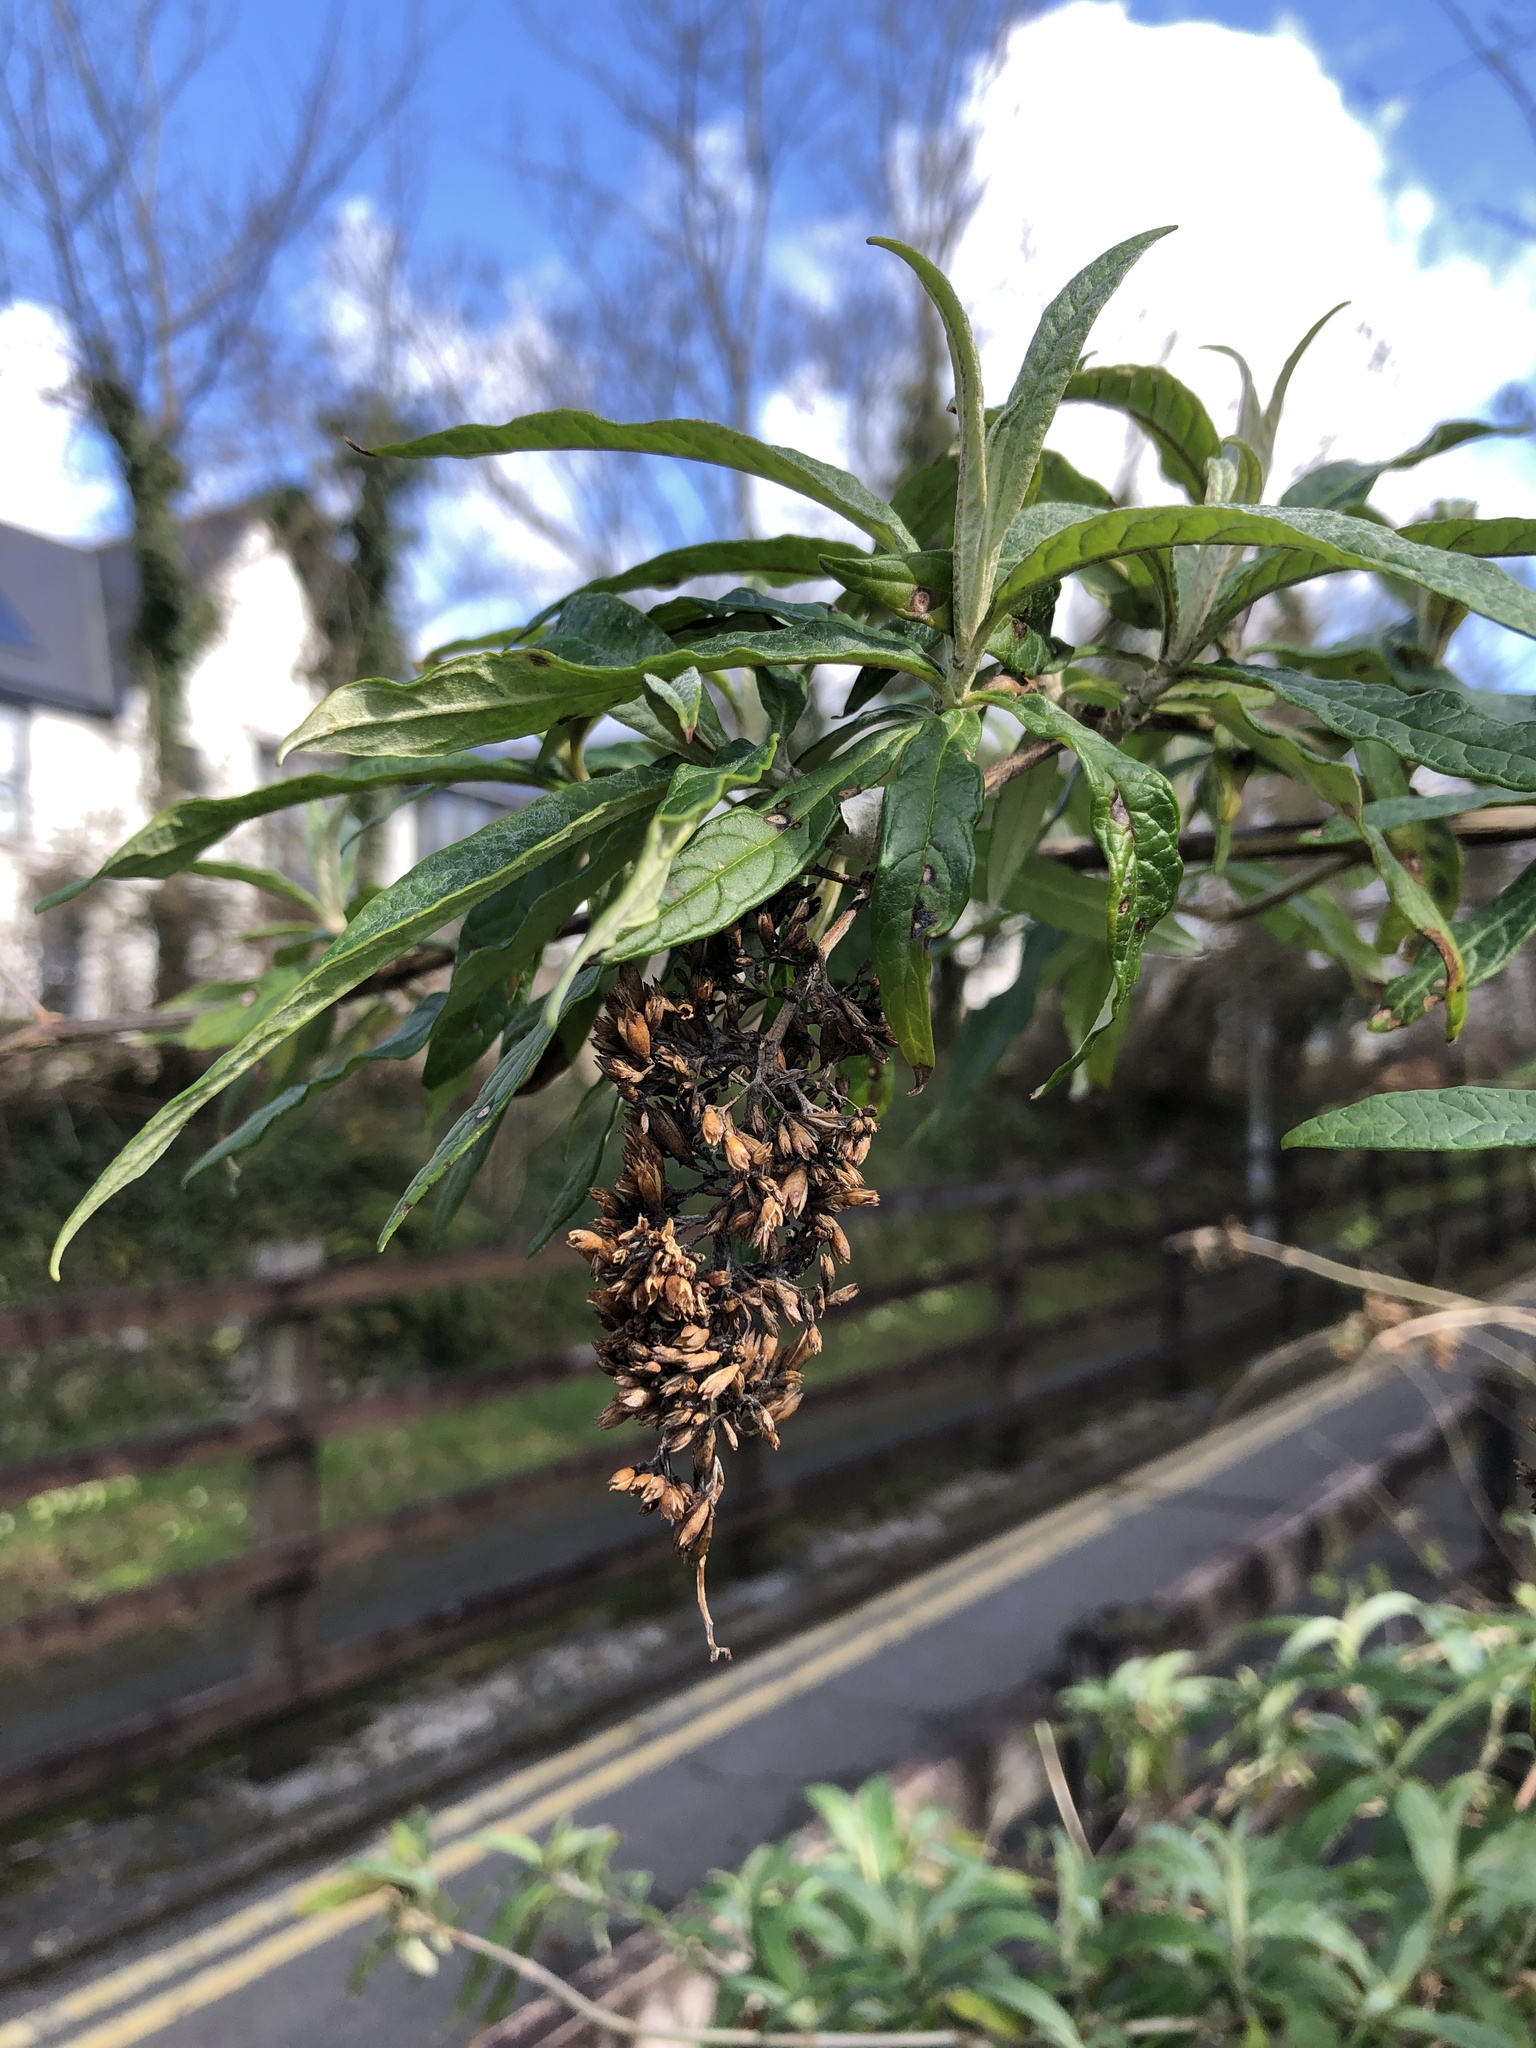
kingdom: Plantae
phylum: Tracheophyta
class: Magnoliopsida
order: Lamiales
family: Scrophulariaceae
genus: Buddleja
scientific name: Buddleja davidii
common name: Butterfly-bush
